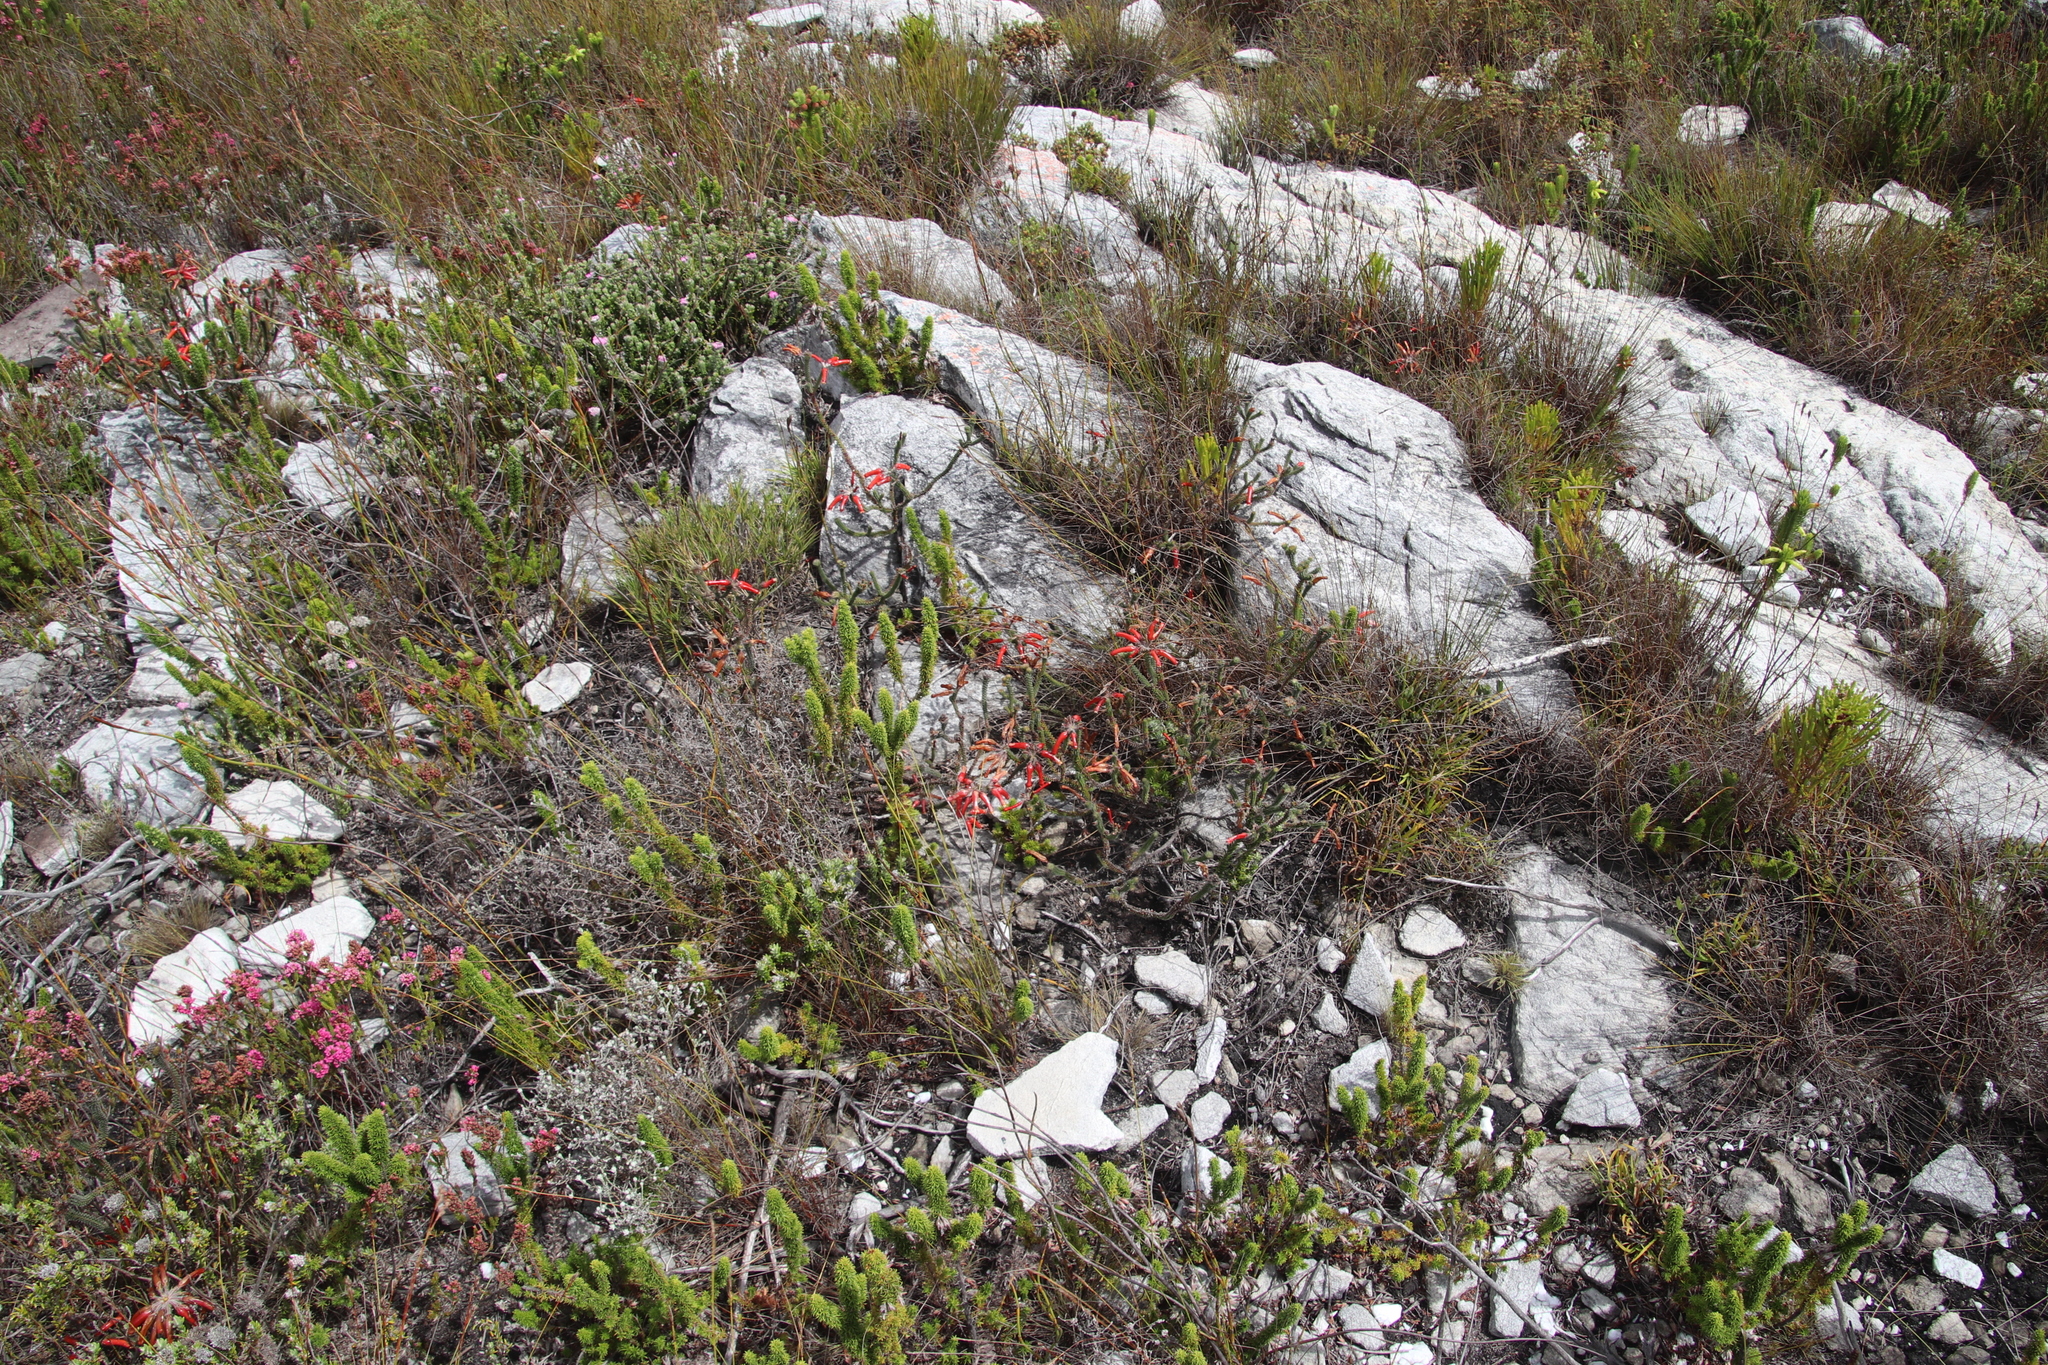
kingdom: Plantae
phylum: Tracheophyta
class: Magnoliopsida
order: Ericales
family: Ericaceae
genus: Erica
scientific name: Erica massonii
